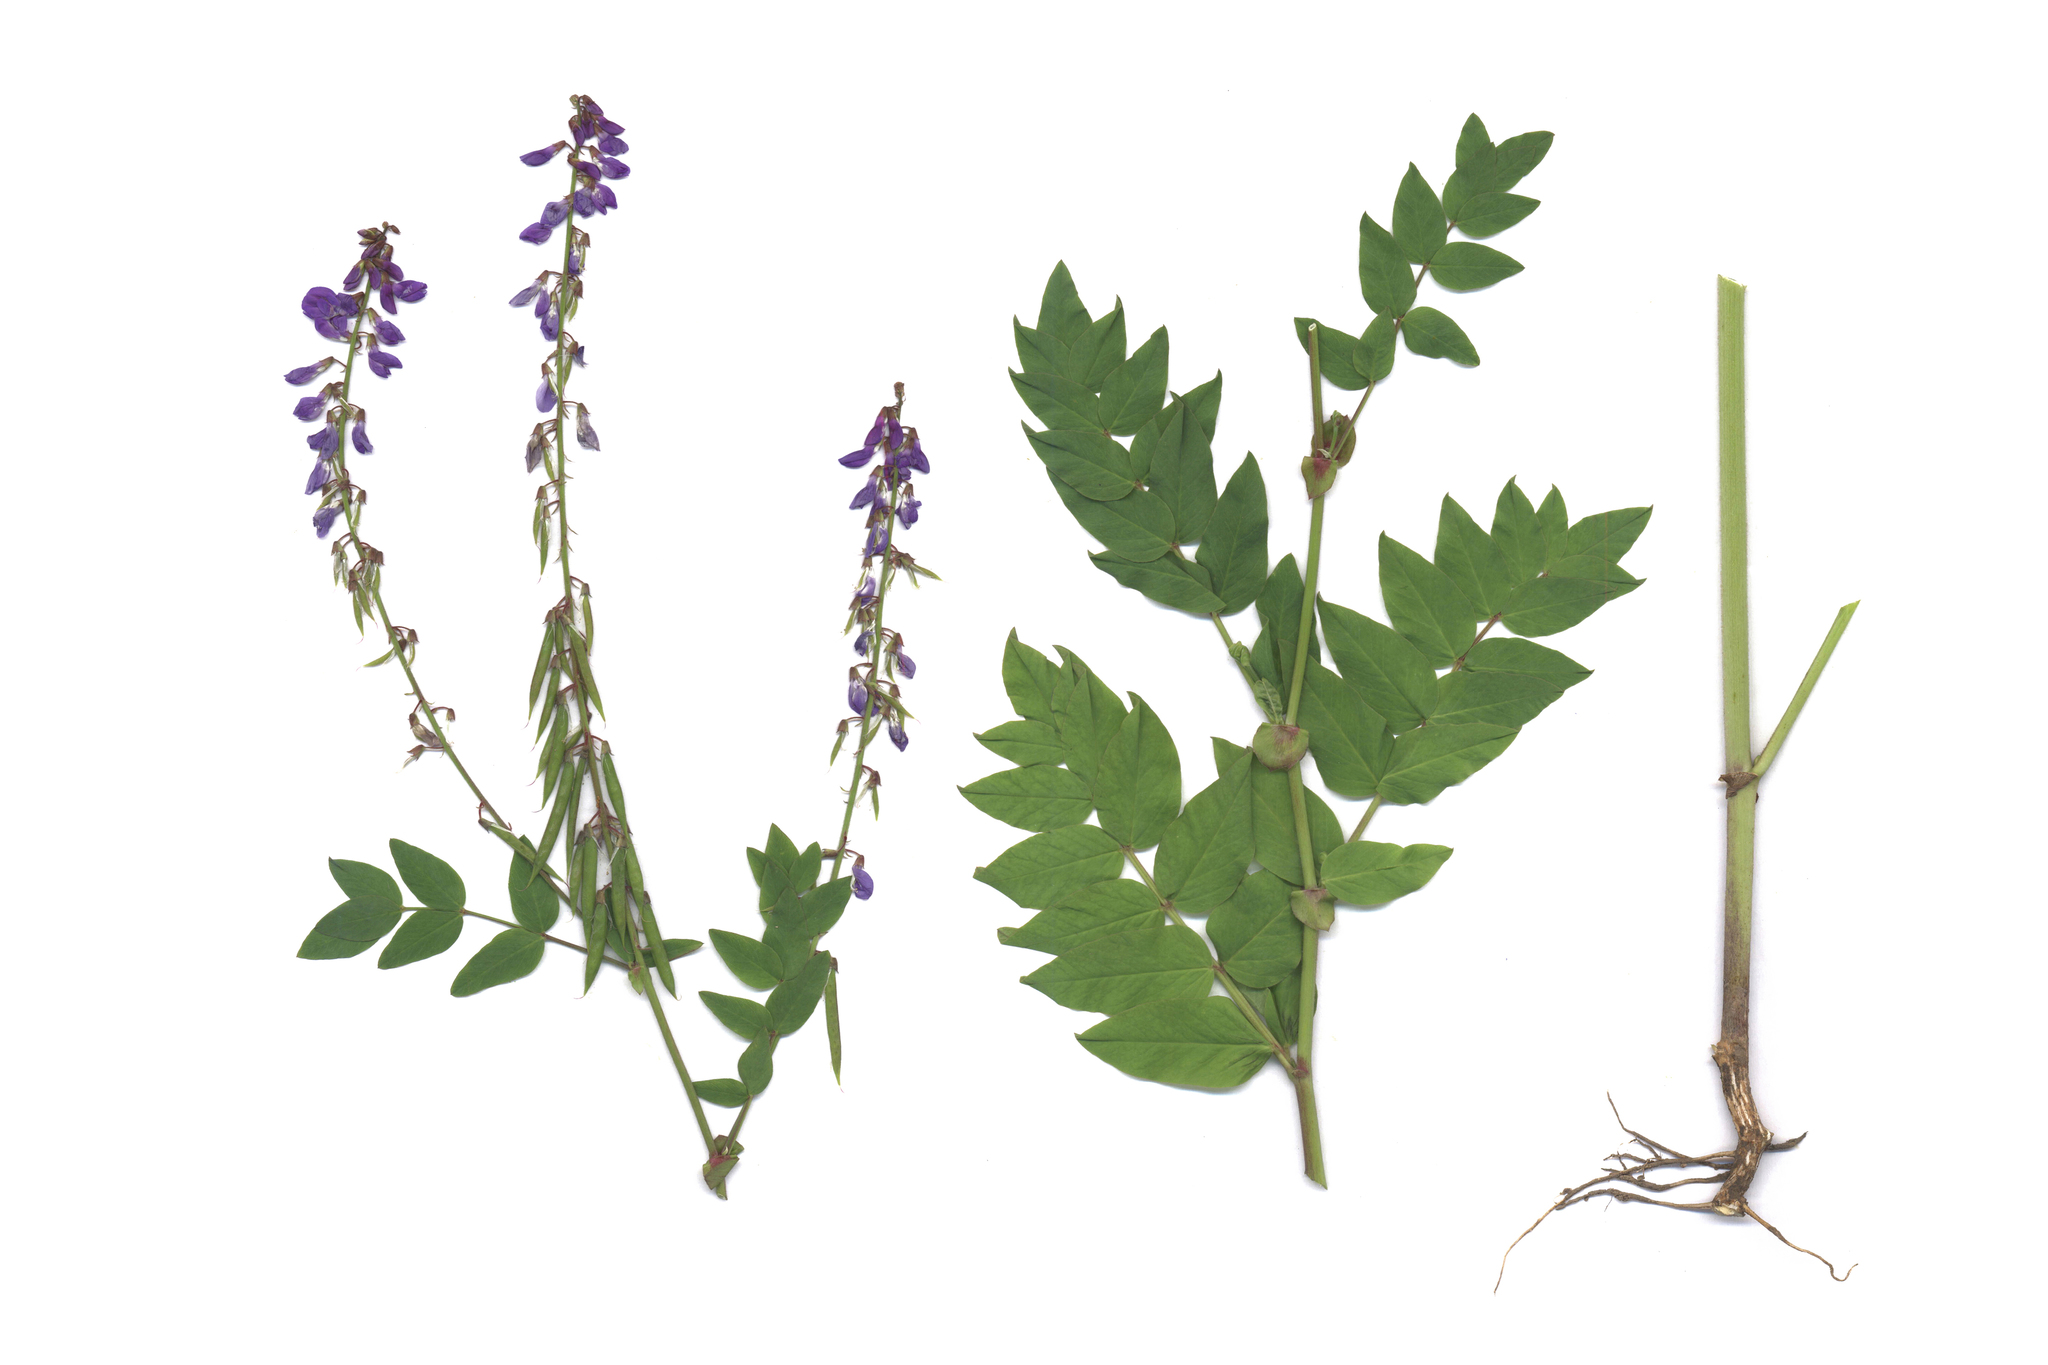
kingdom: Plantae
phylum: Tracheophyta
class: Magnoliopsida
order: Fabales
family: Fabaceae
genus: Galega
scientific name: Galega orientalis
